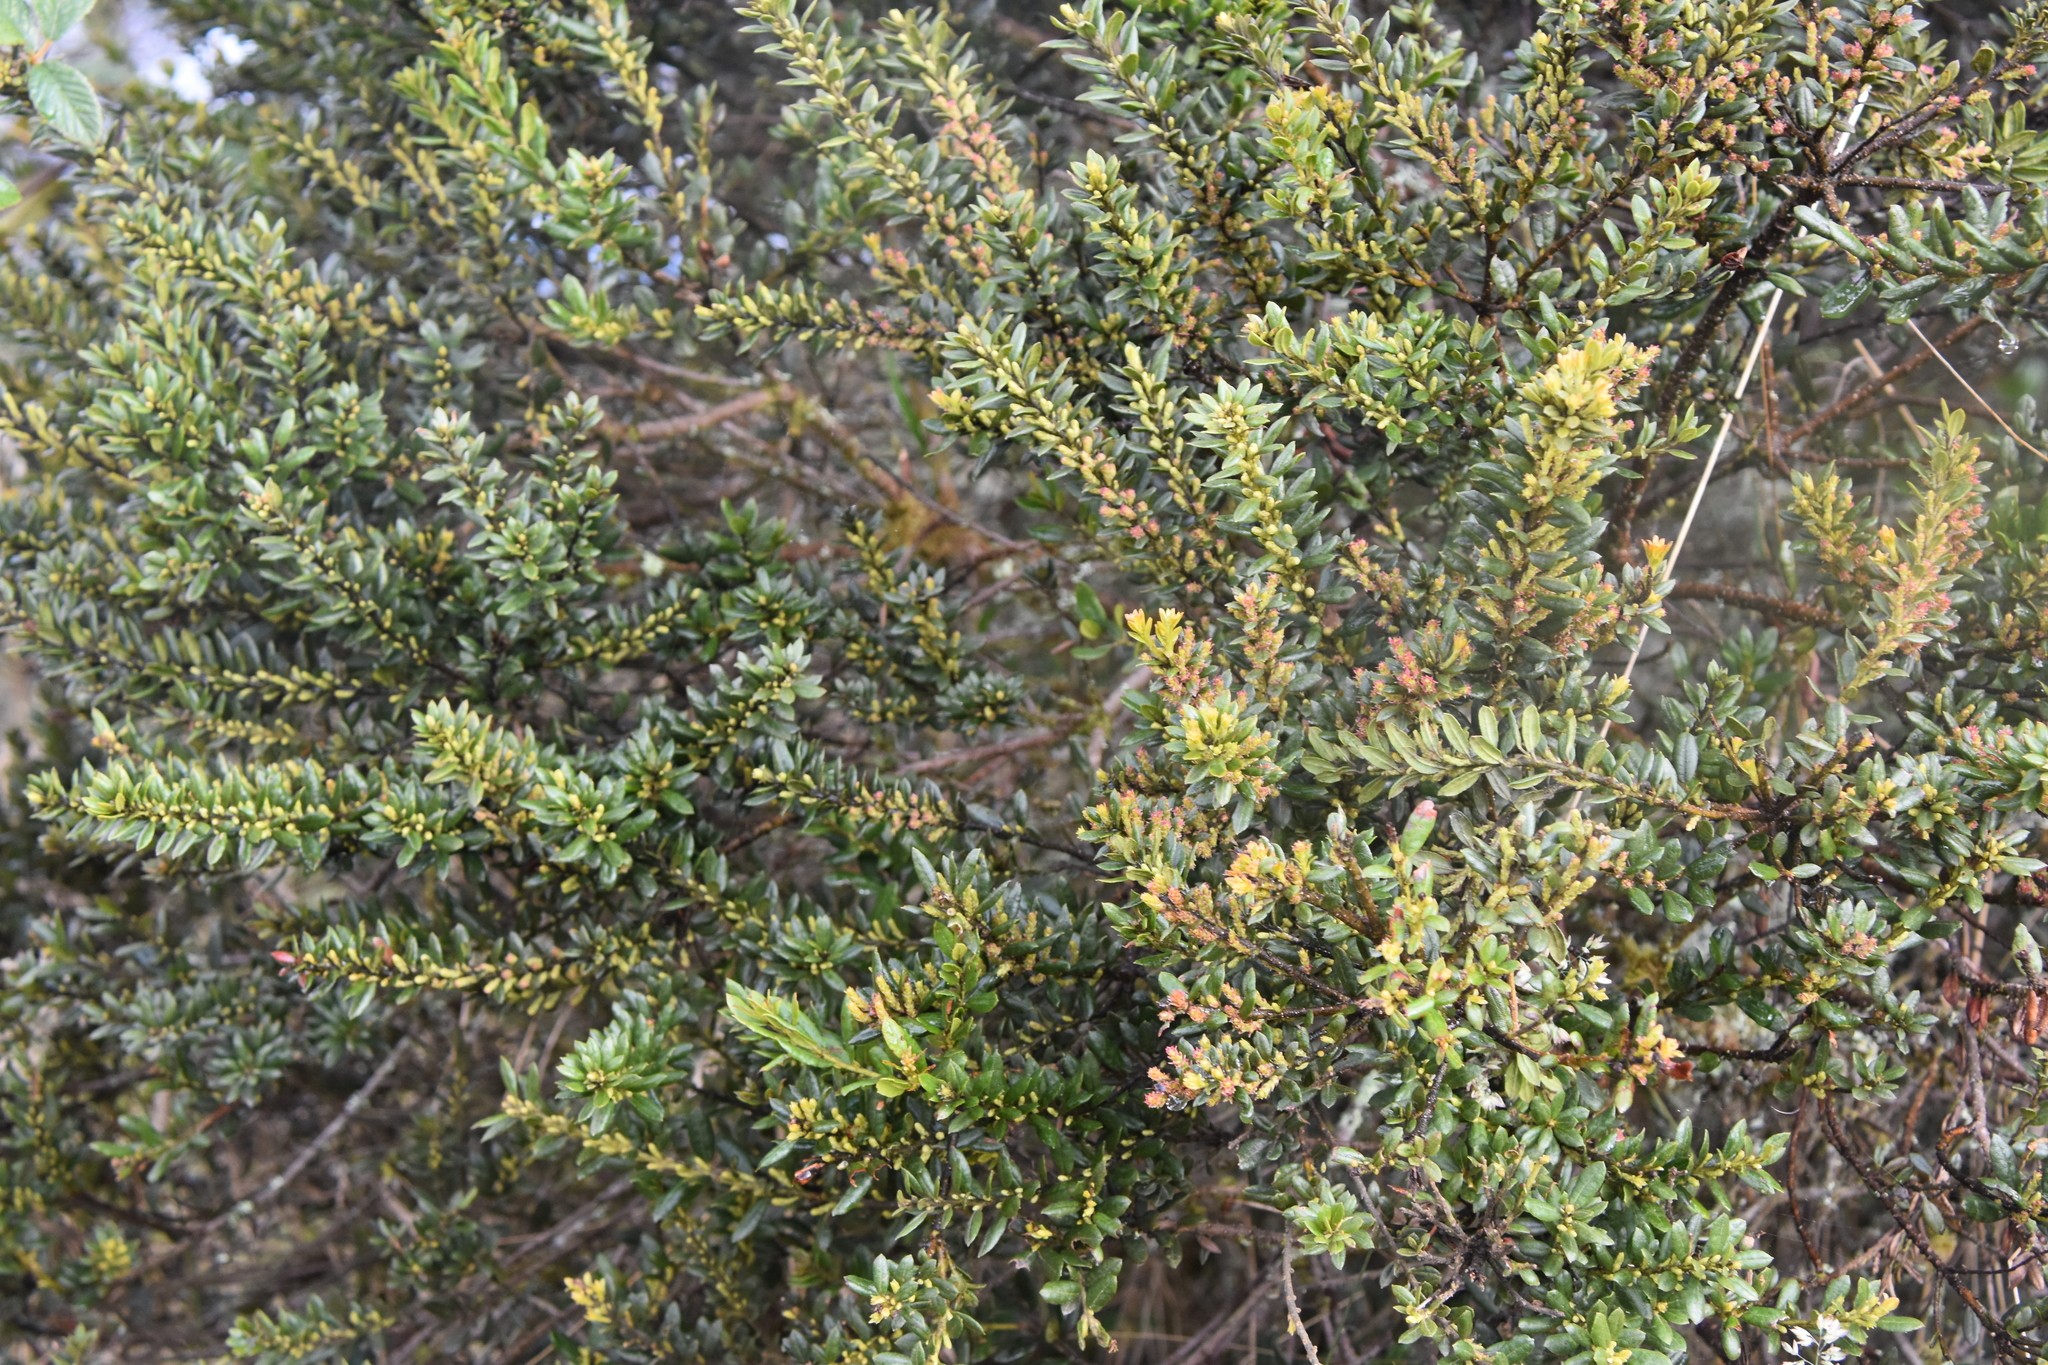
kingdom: Plantae
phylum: Tracheophyta
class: Magnoliopsida
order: Fagales
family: Myricaceae
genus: Morella
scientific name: Morella parvifolia
